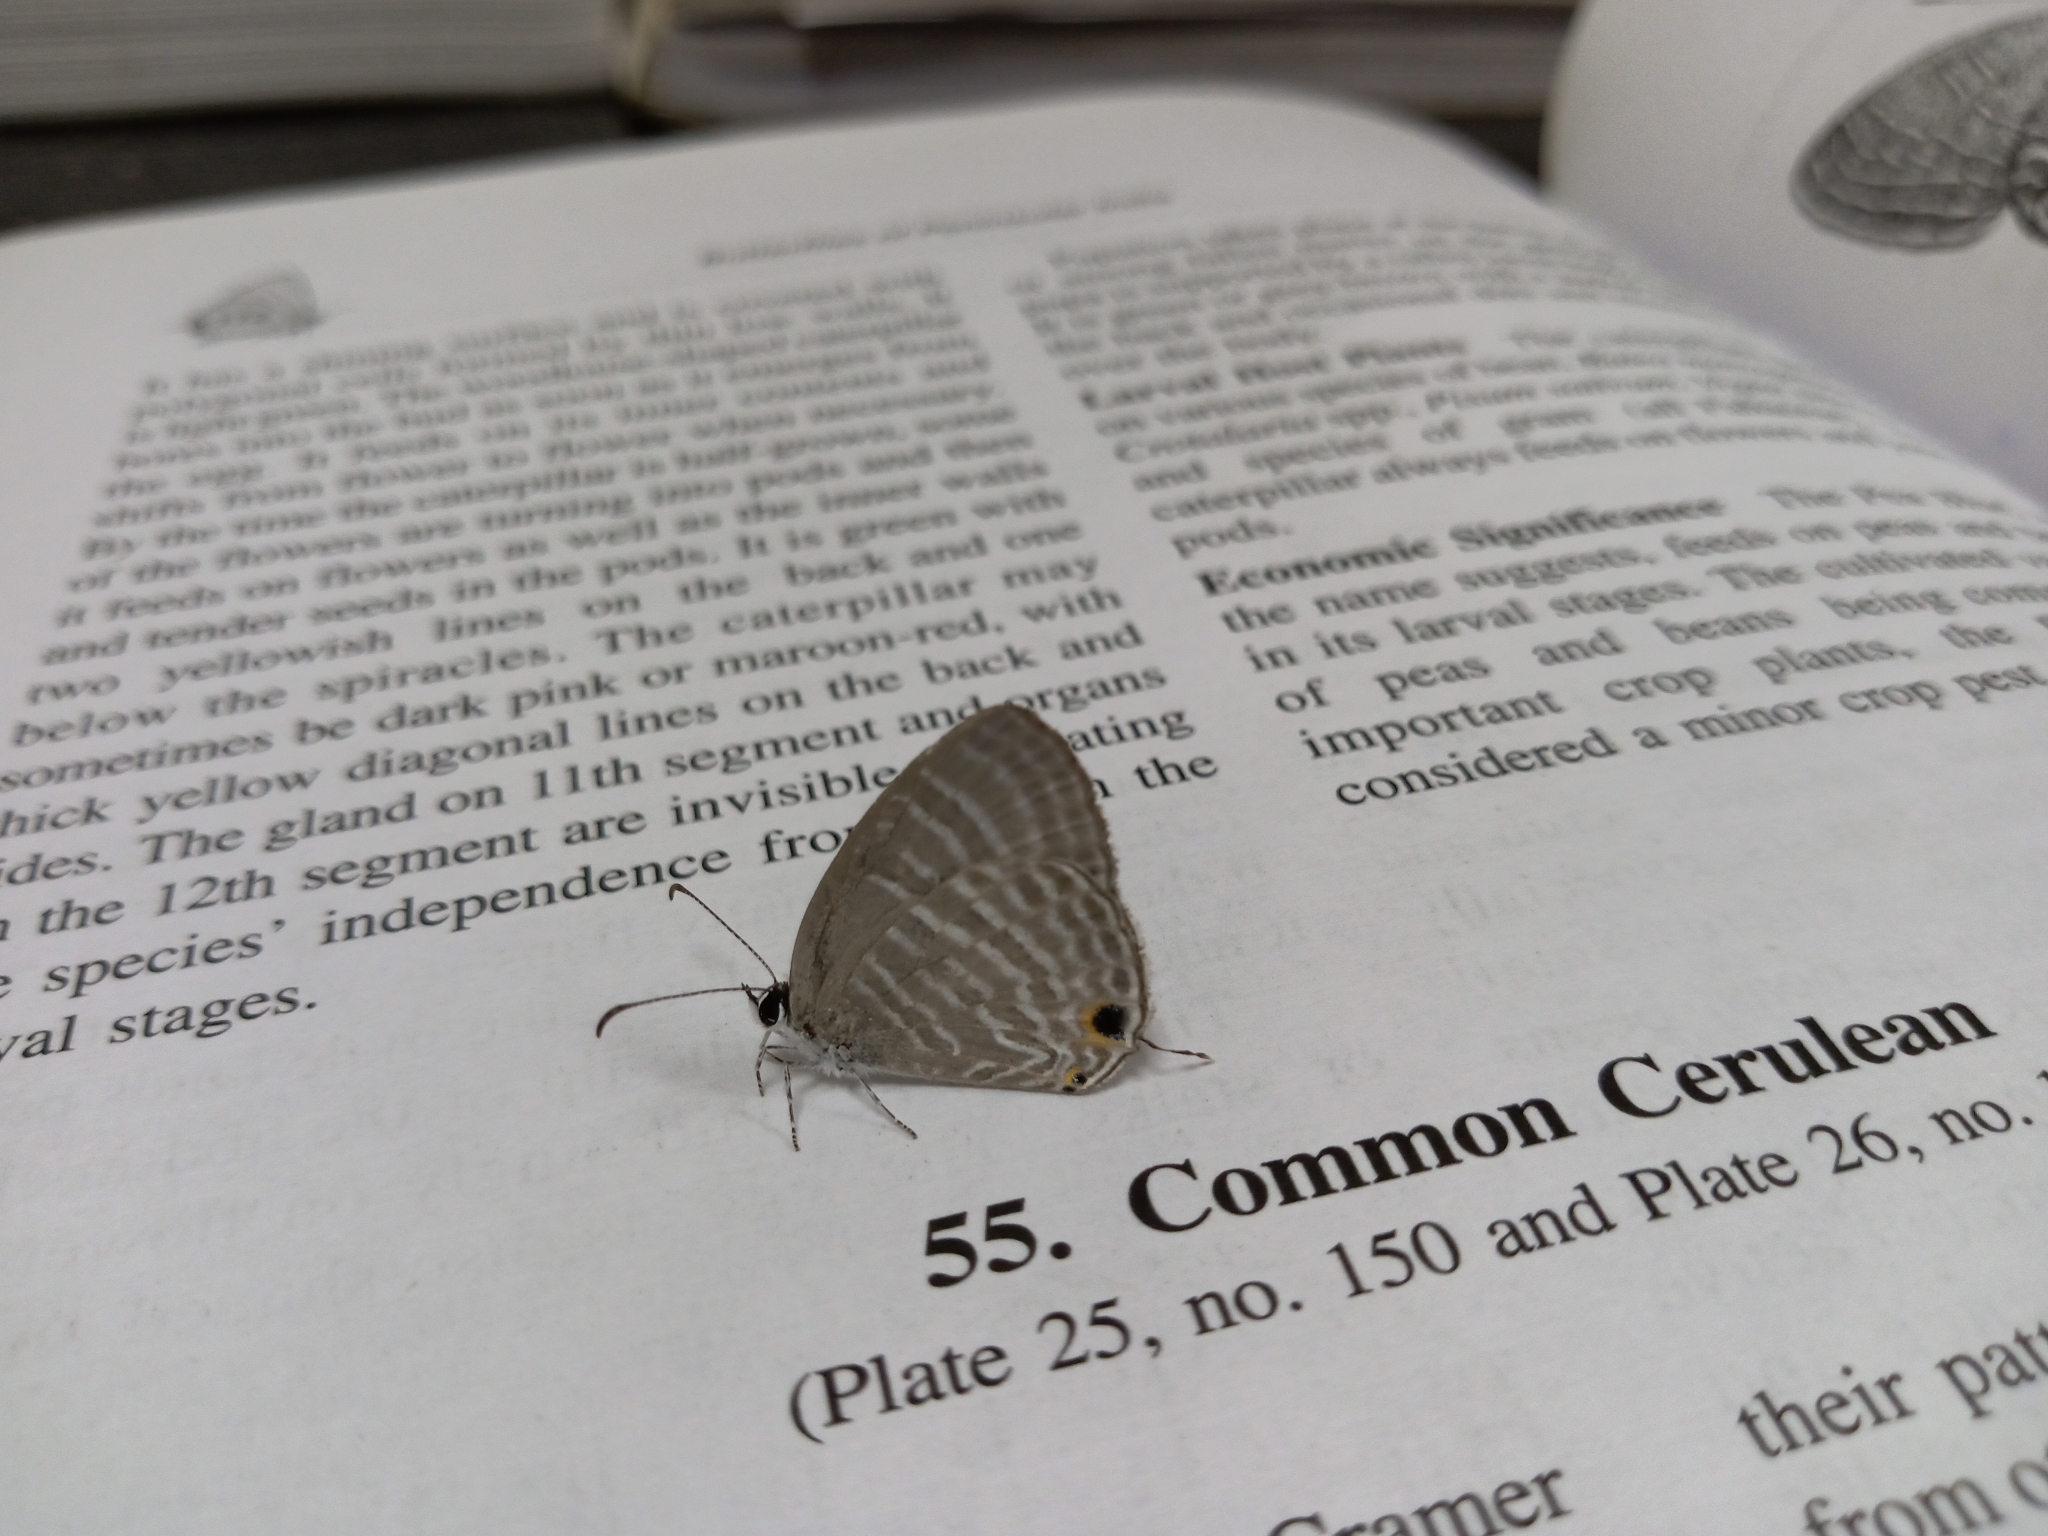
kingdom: Animalia
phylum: Arthropoda
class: Insecta
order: Lepidoptera
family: Lycaenidae
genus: Jamides
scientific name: Jamides celeno
